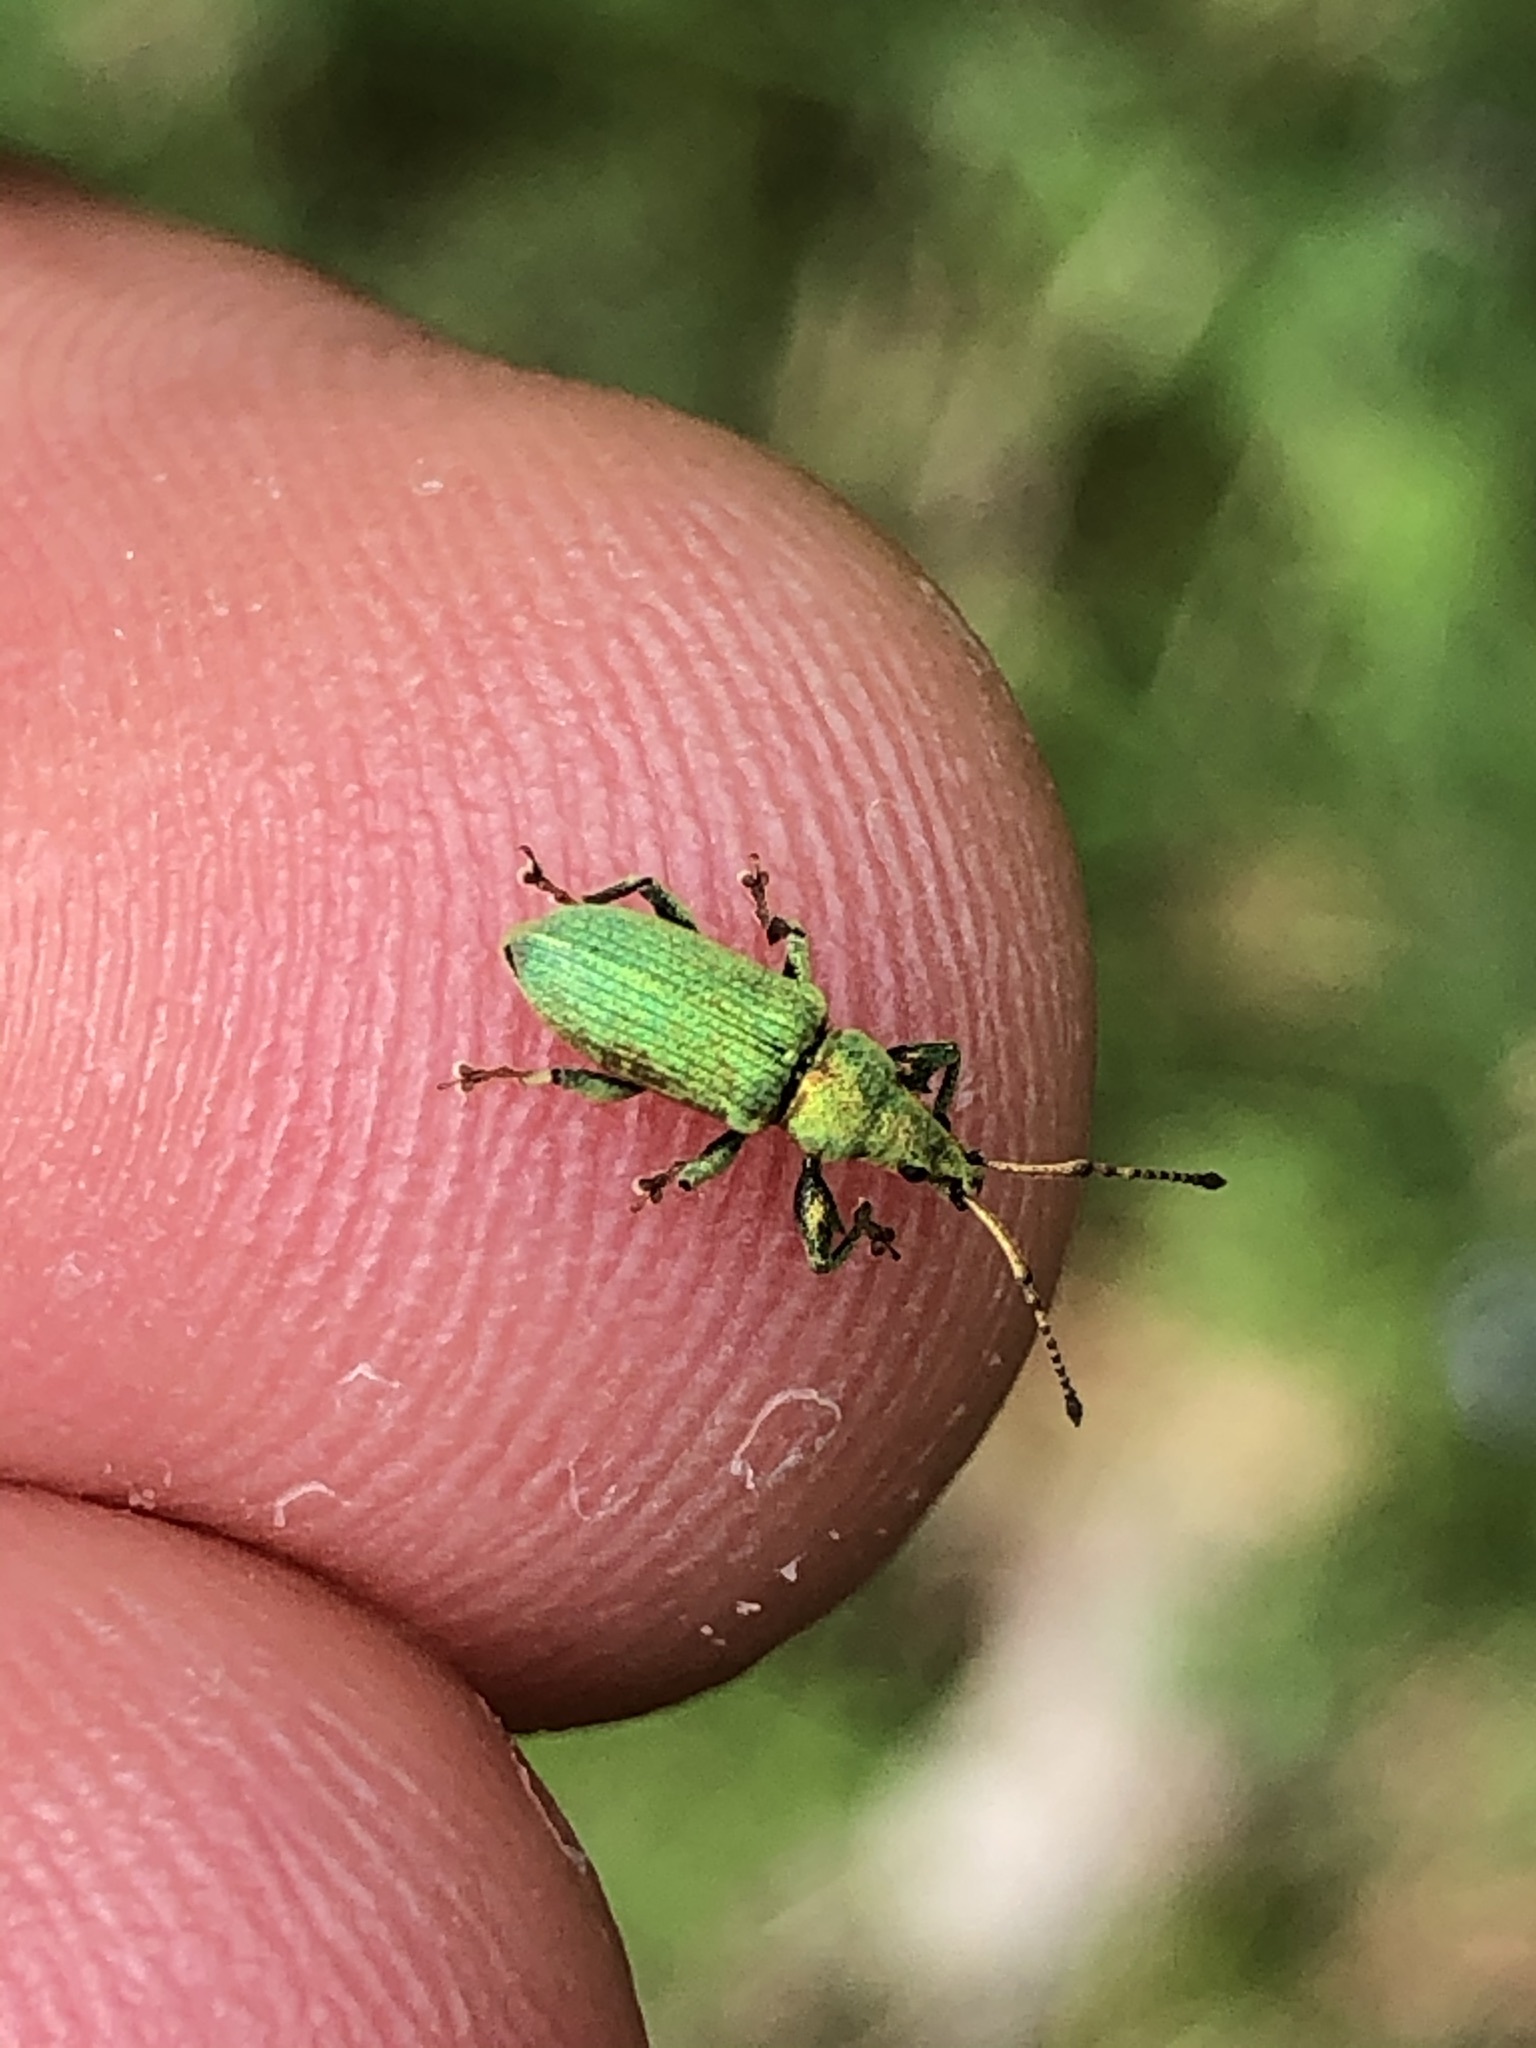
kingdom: Animalia
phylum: Arthropoda
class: Insecta
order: Coleoptera
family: Curculionidae
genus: Phyllobius
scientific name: Phyllobius maculicornis
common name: Green leaf weevil
